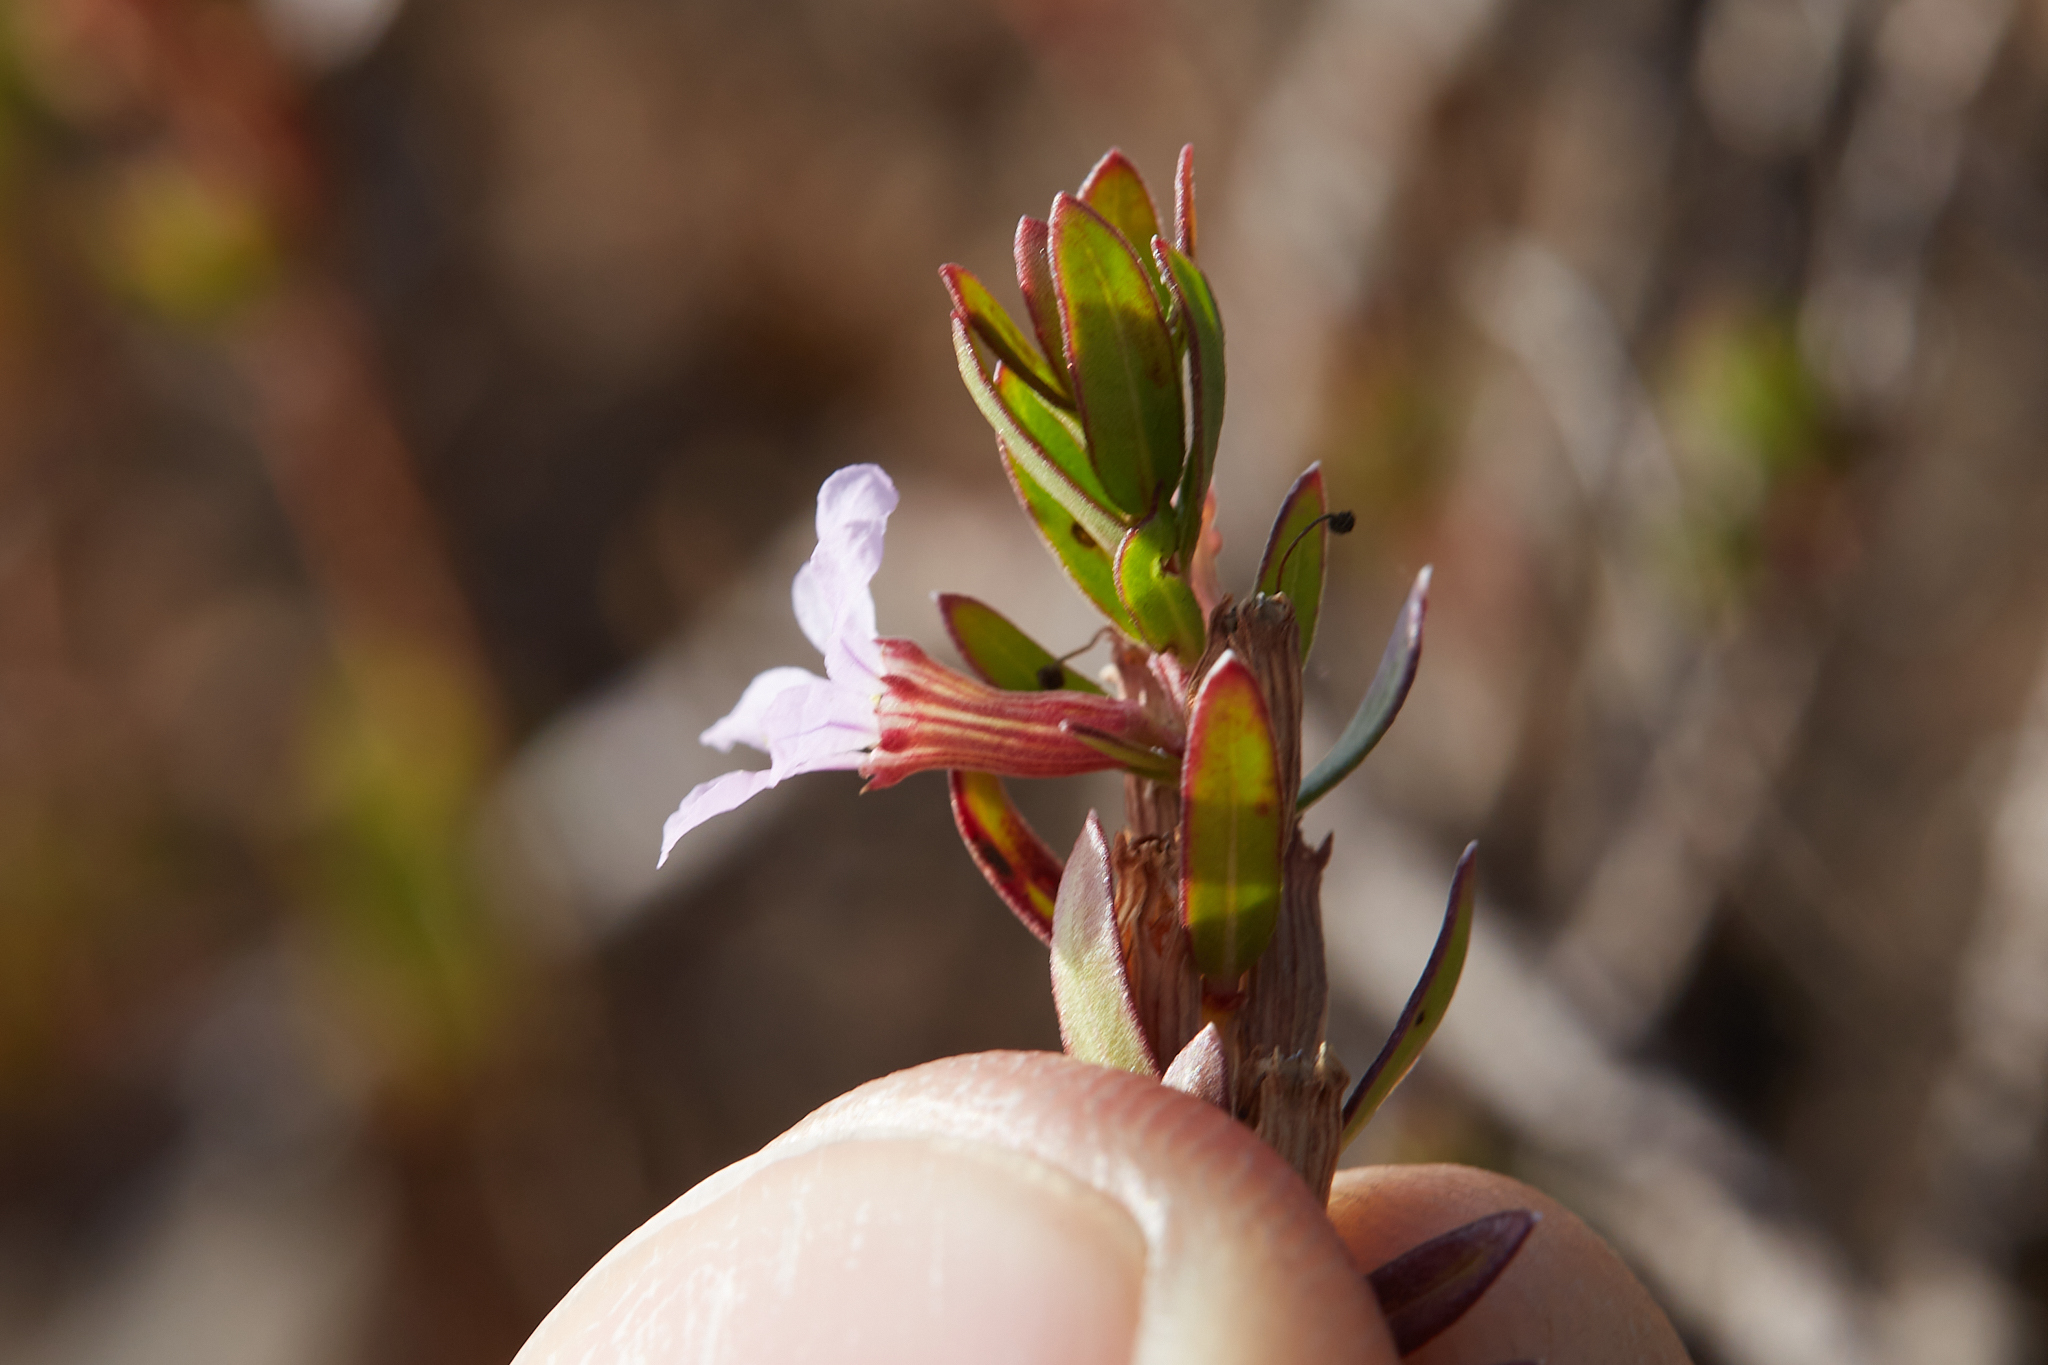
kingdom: Plantae
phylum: Tracheophyta
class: Magnoliopsida
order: Myrtales
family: Lythraceae
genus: Lythrum
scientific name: Lythrum maritimum
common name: Pukamole
